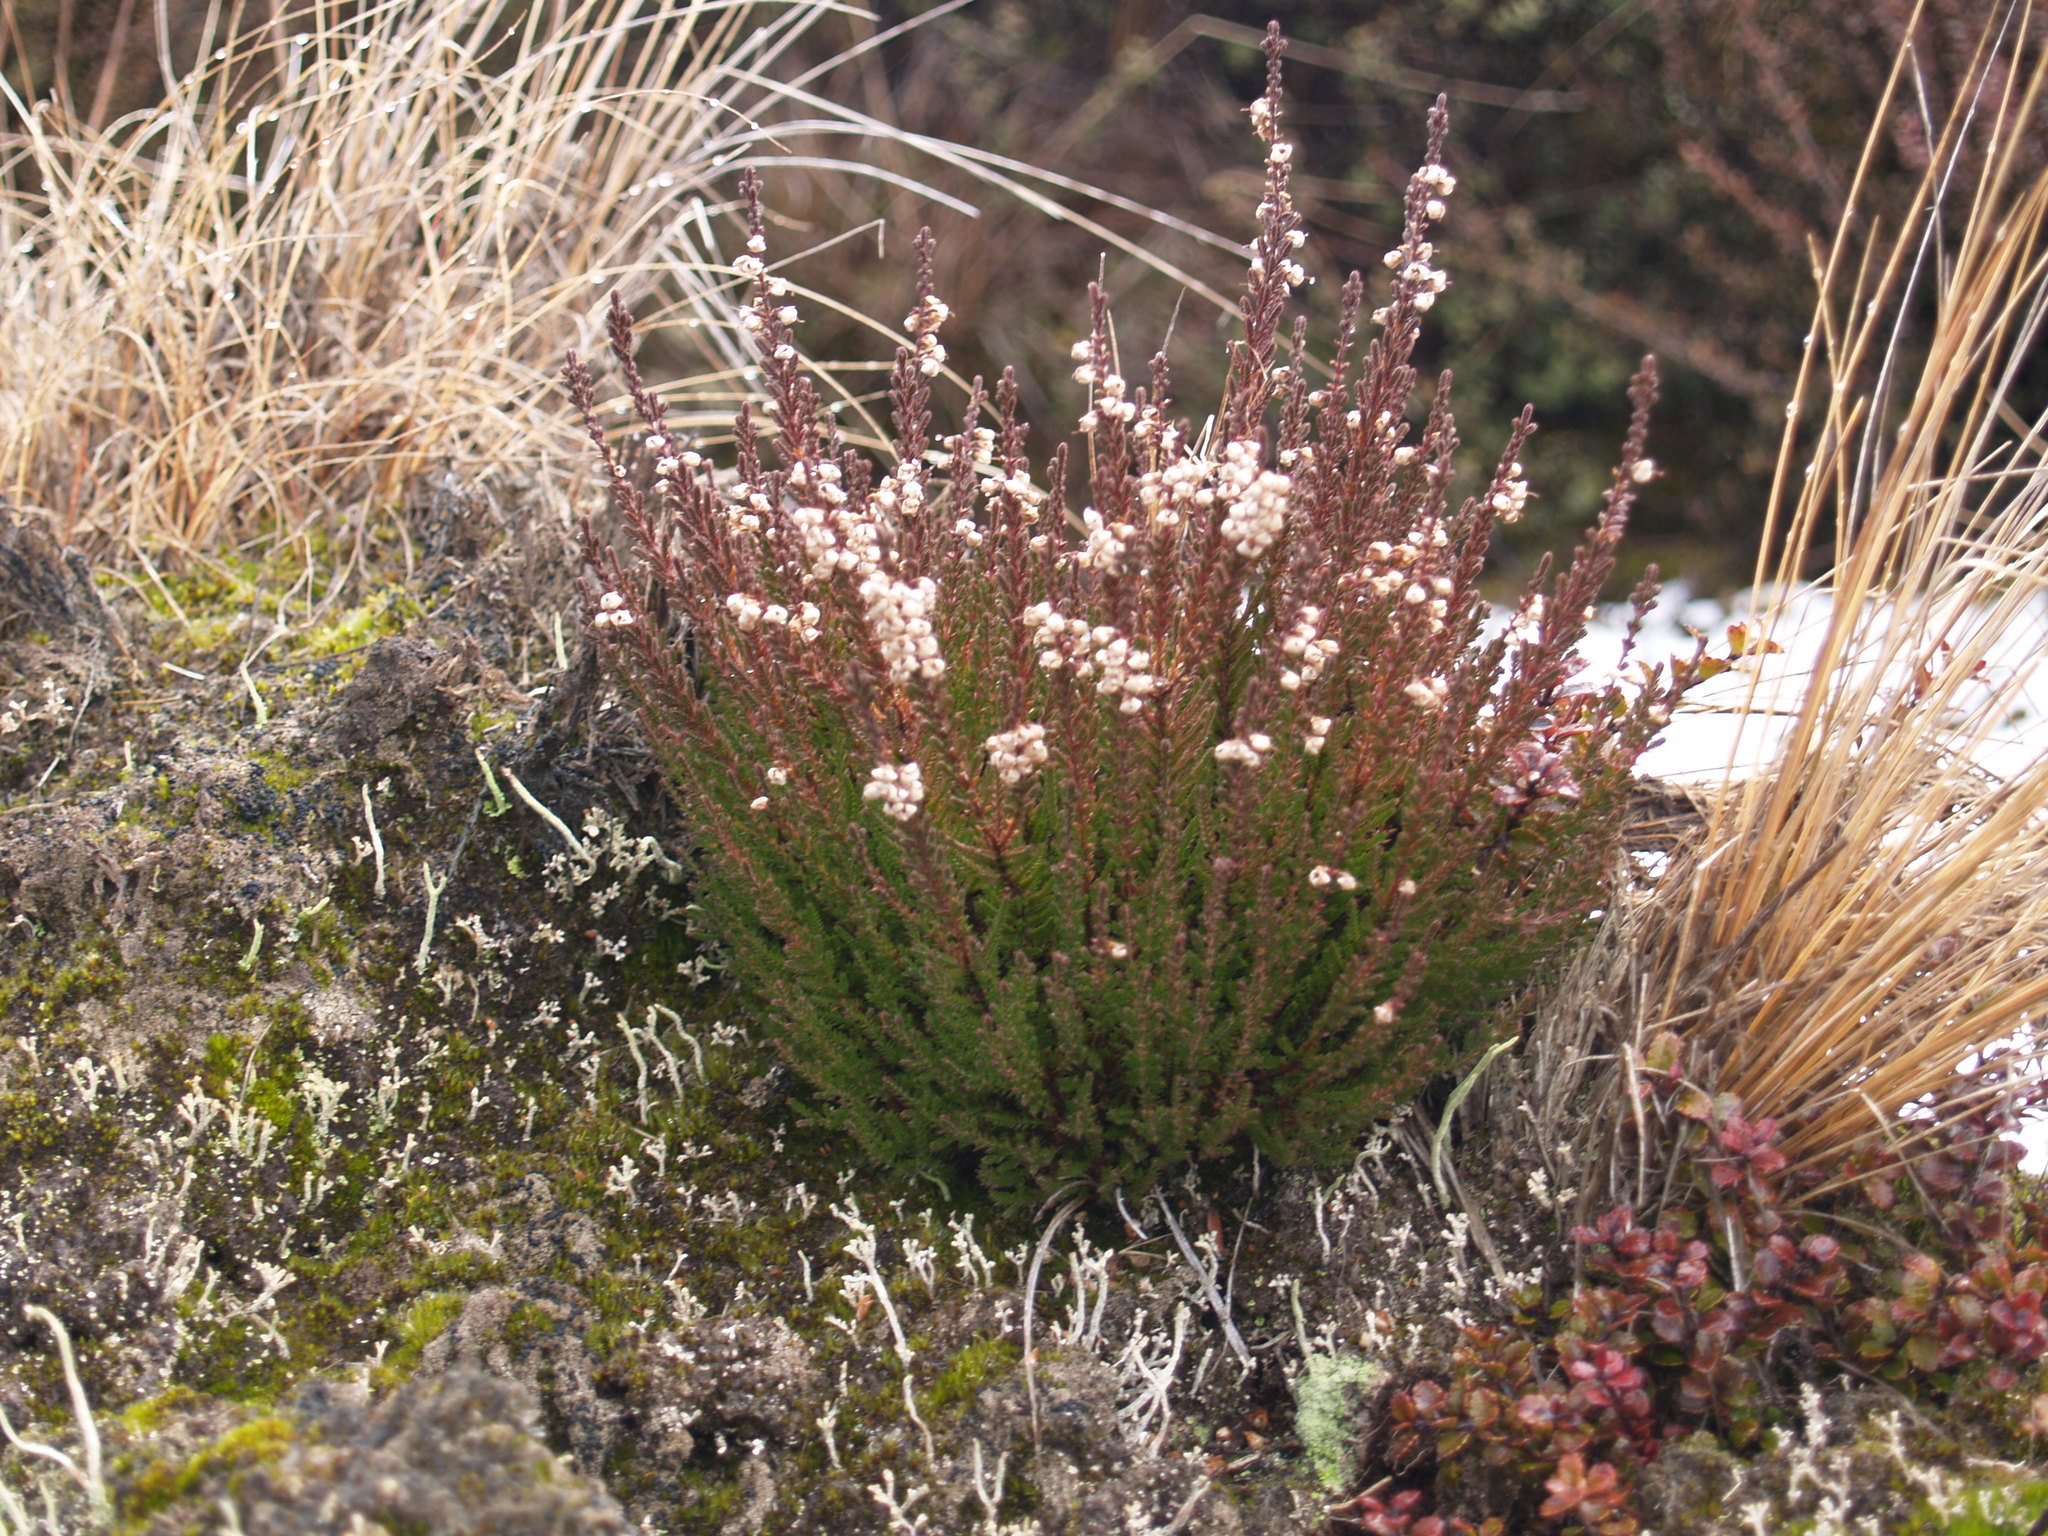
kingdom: Plantae
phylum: Tracheophyta
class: Magnoliopsida
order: Ericales
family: Ericaceae
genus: Calluna
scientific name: Calluna vulgaris
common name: Heather
